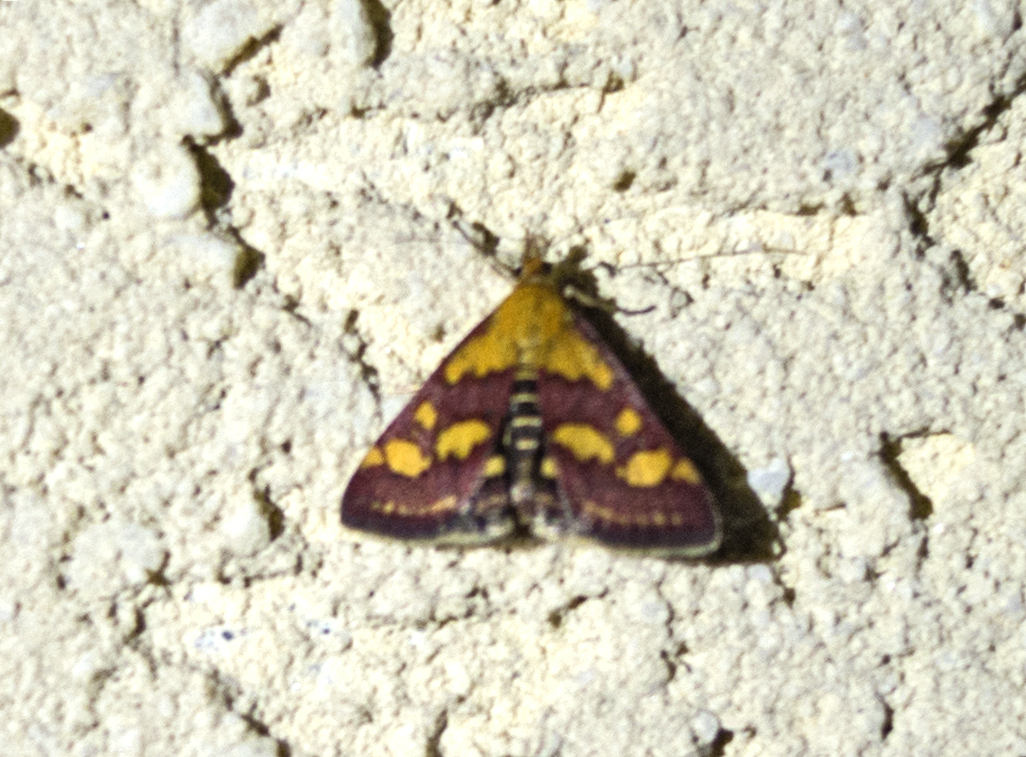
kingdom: Animalia
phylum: Arthropoda
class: Insecta
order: Lepidoptera
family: Crambidae
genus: Pyrausta
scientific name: Pyrausta purpuralis
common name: Common purple & gold
